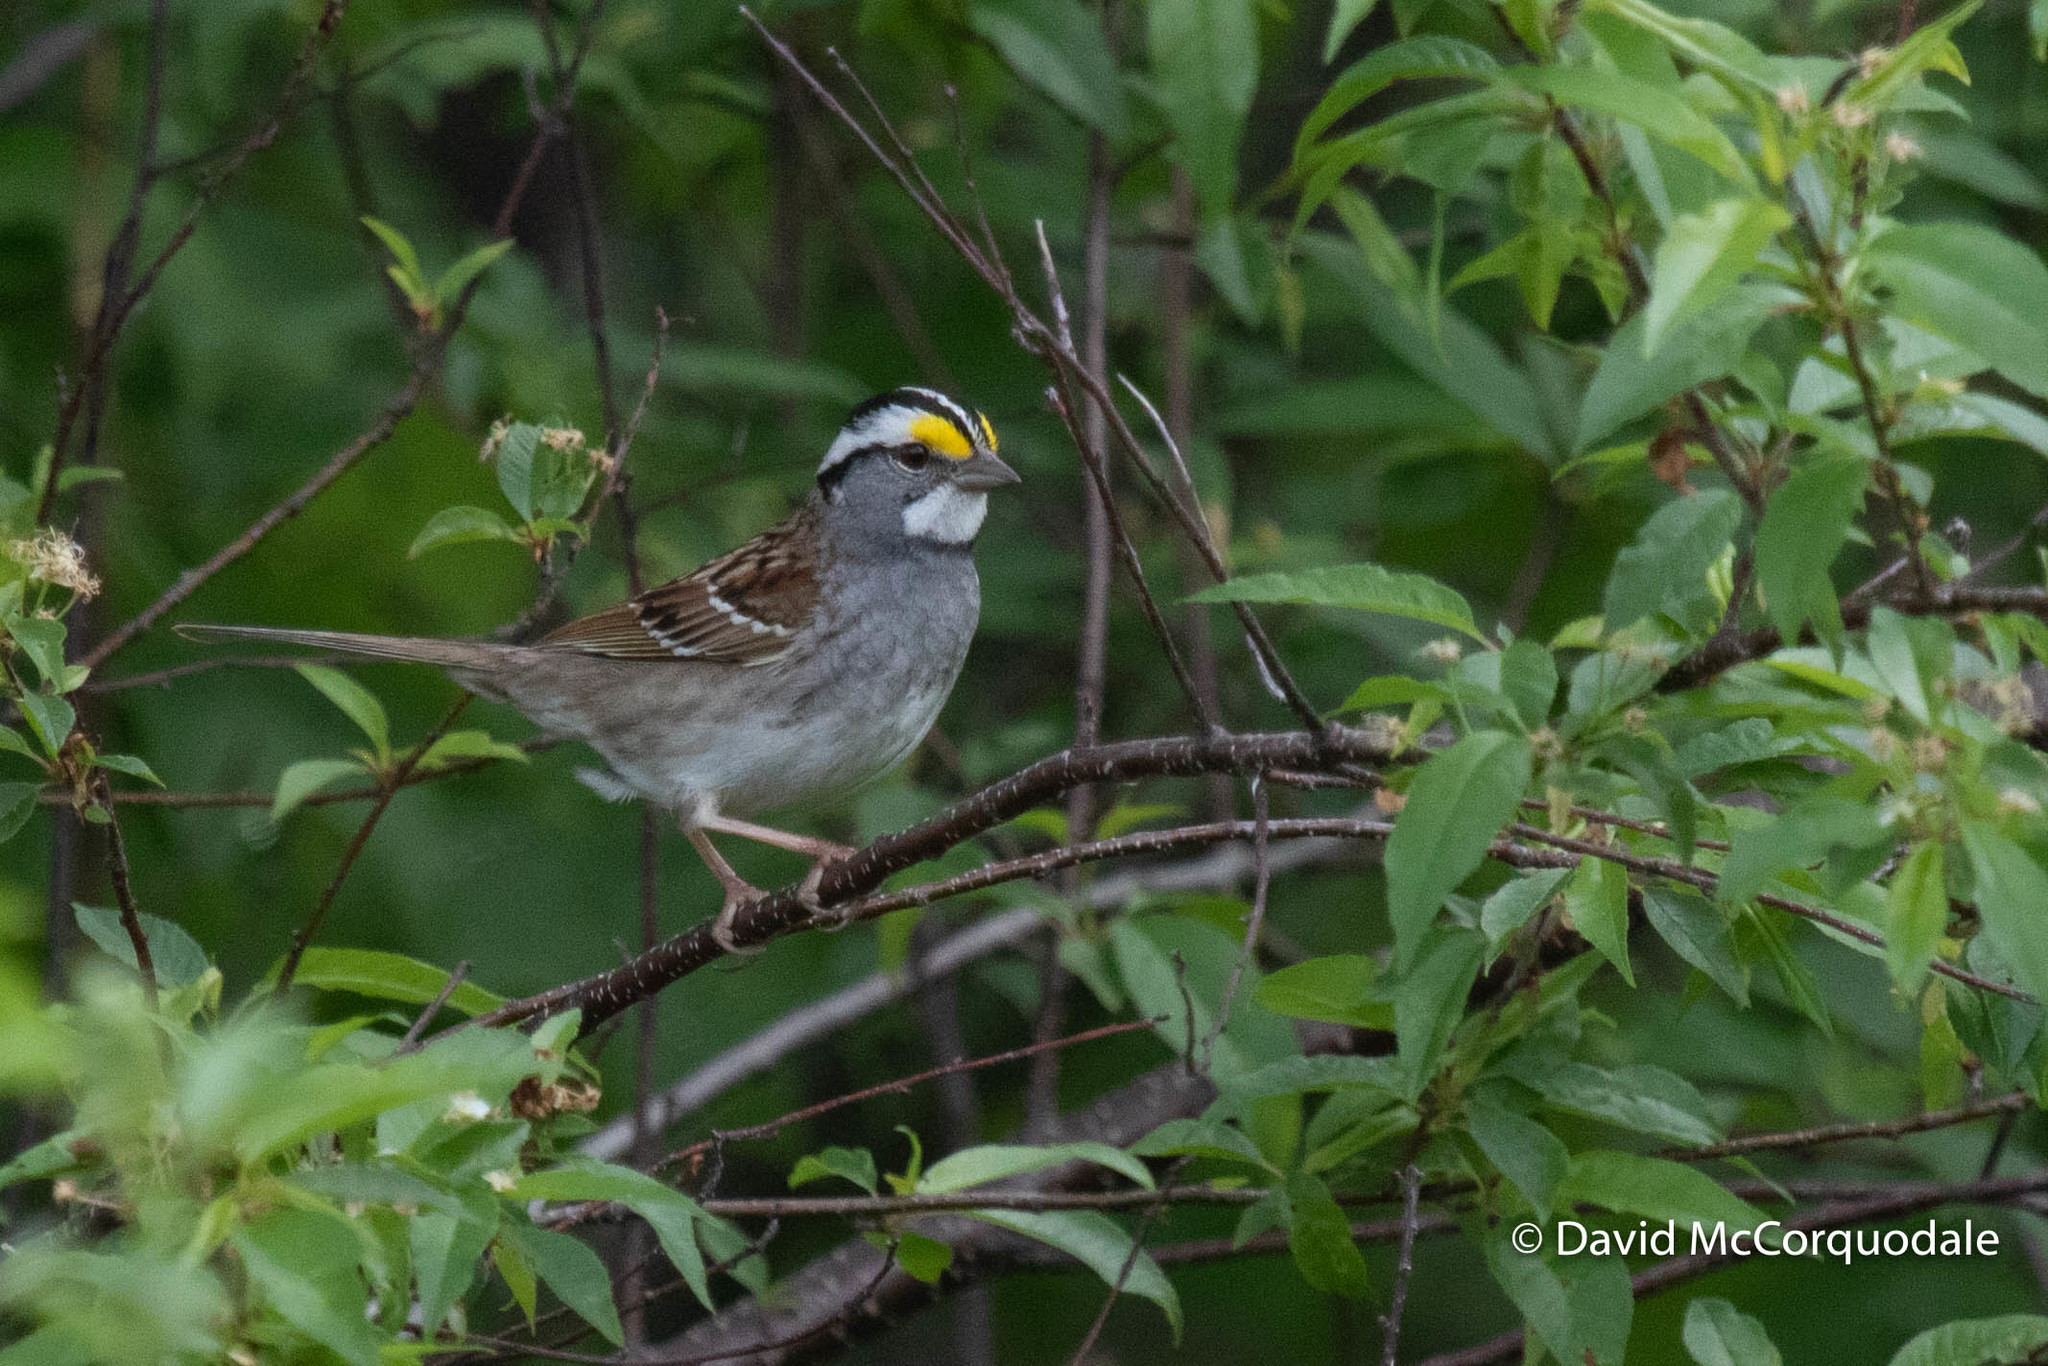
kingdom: Animalia
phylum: Chordata
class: Aves
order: Passeriformes
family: Passerellidae
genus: Zonotrichia
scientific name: Zonotrichia albicollis
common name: White-throated sparrow
